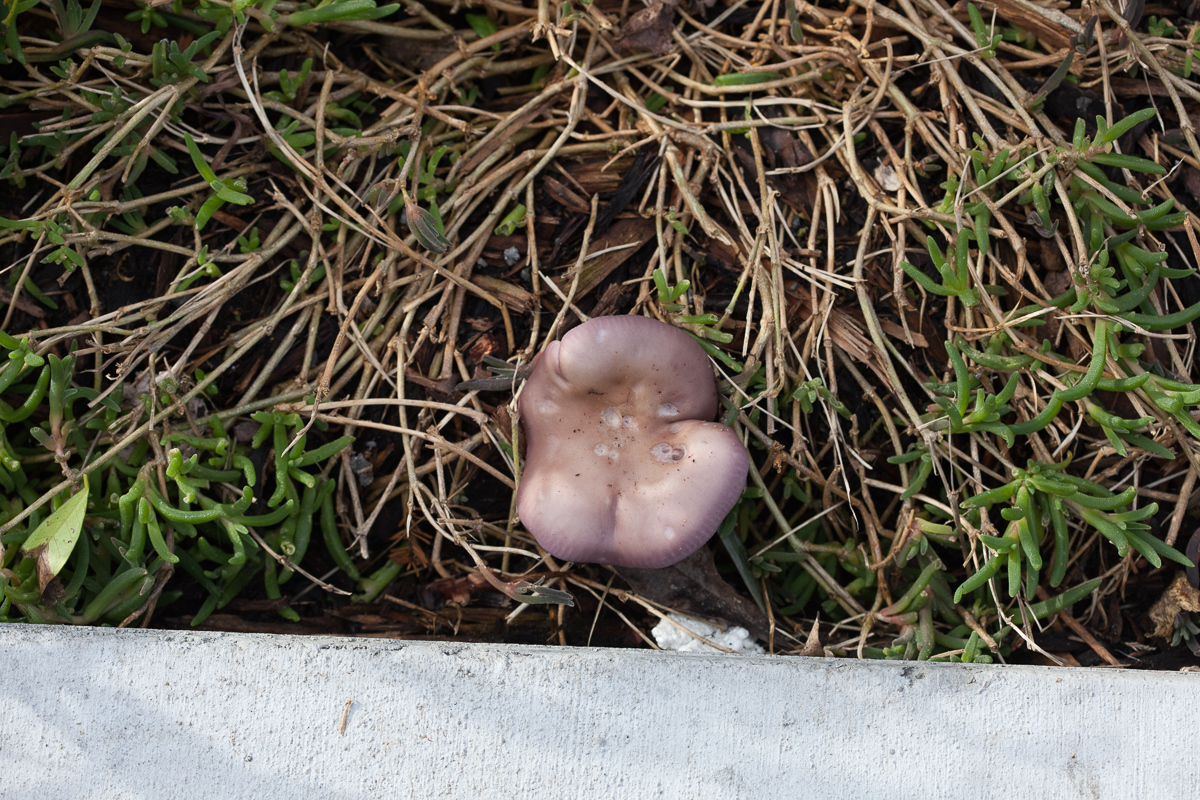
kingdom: Fungi
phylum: Basidiomycota
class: Agaricomycetes
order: Agaricales
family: Tricholomataceae
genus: Collybia
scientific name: Collybia
